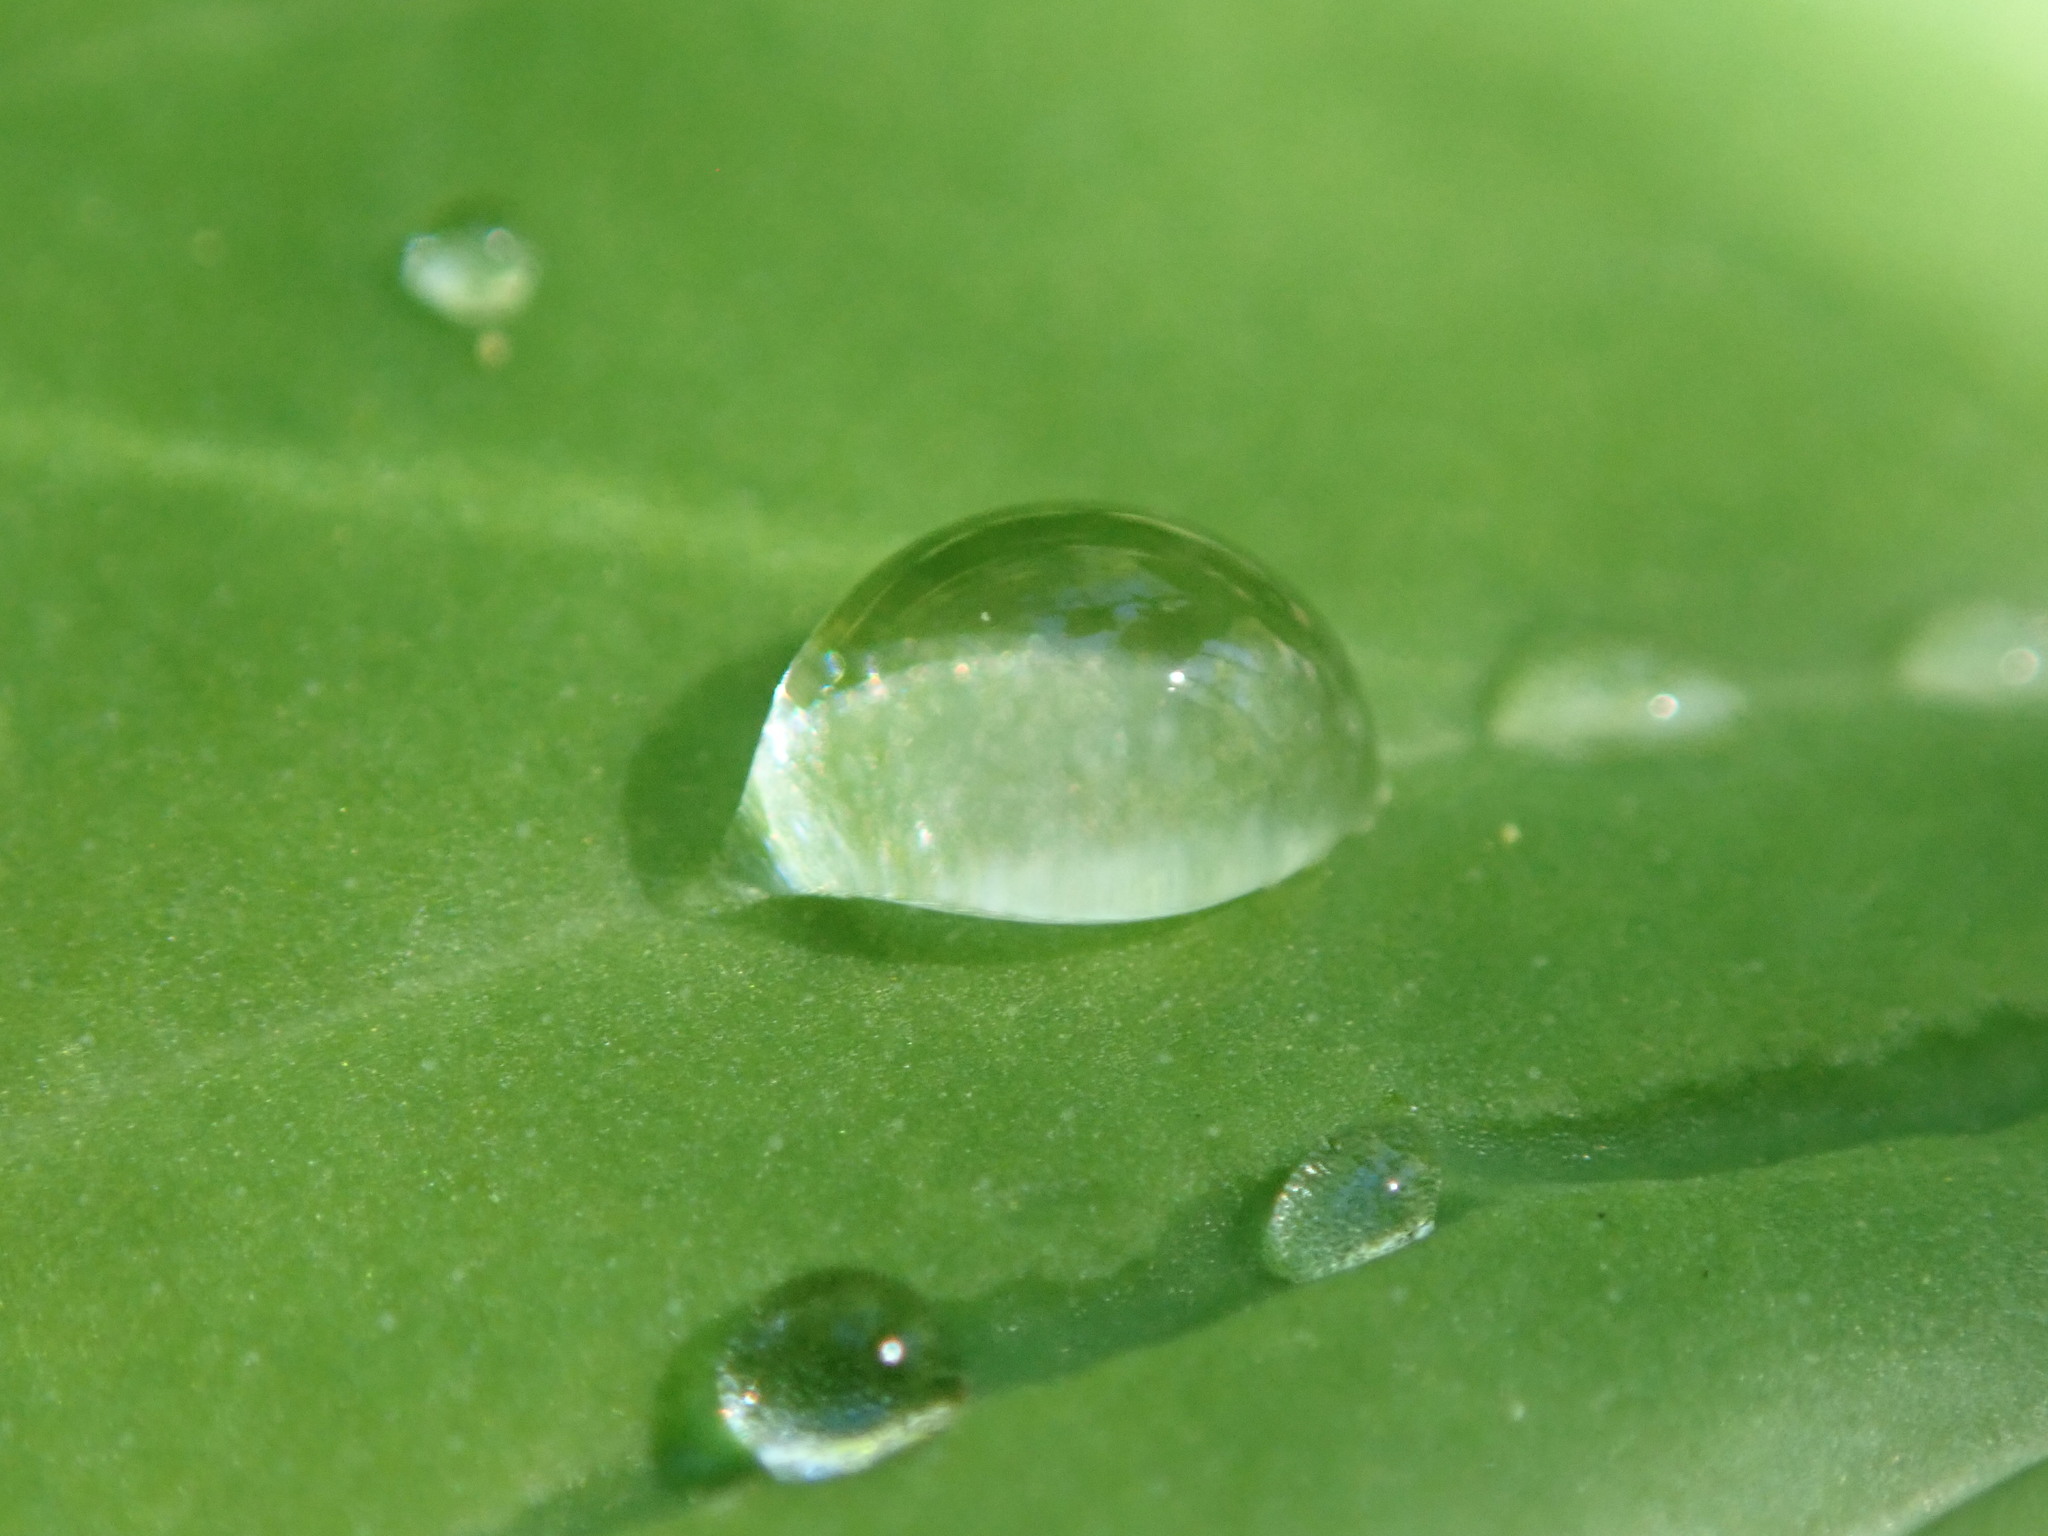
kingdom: Plantae
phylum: Tracheophyta
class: Magnoliopsida
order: Boraginales
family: Boraginaceae
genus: Mertensia
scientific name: Mertensia virginica
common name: Virginia bluebells
